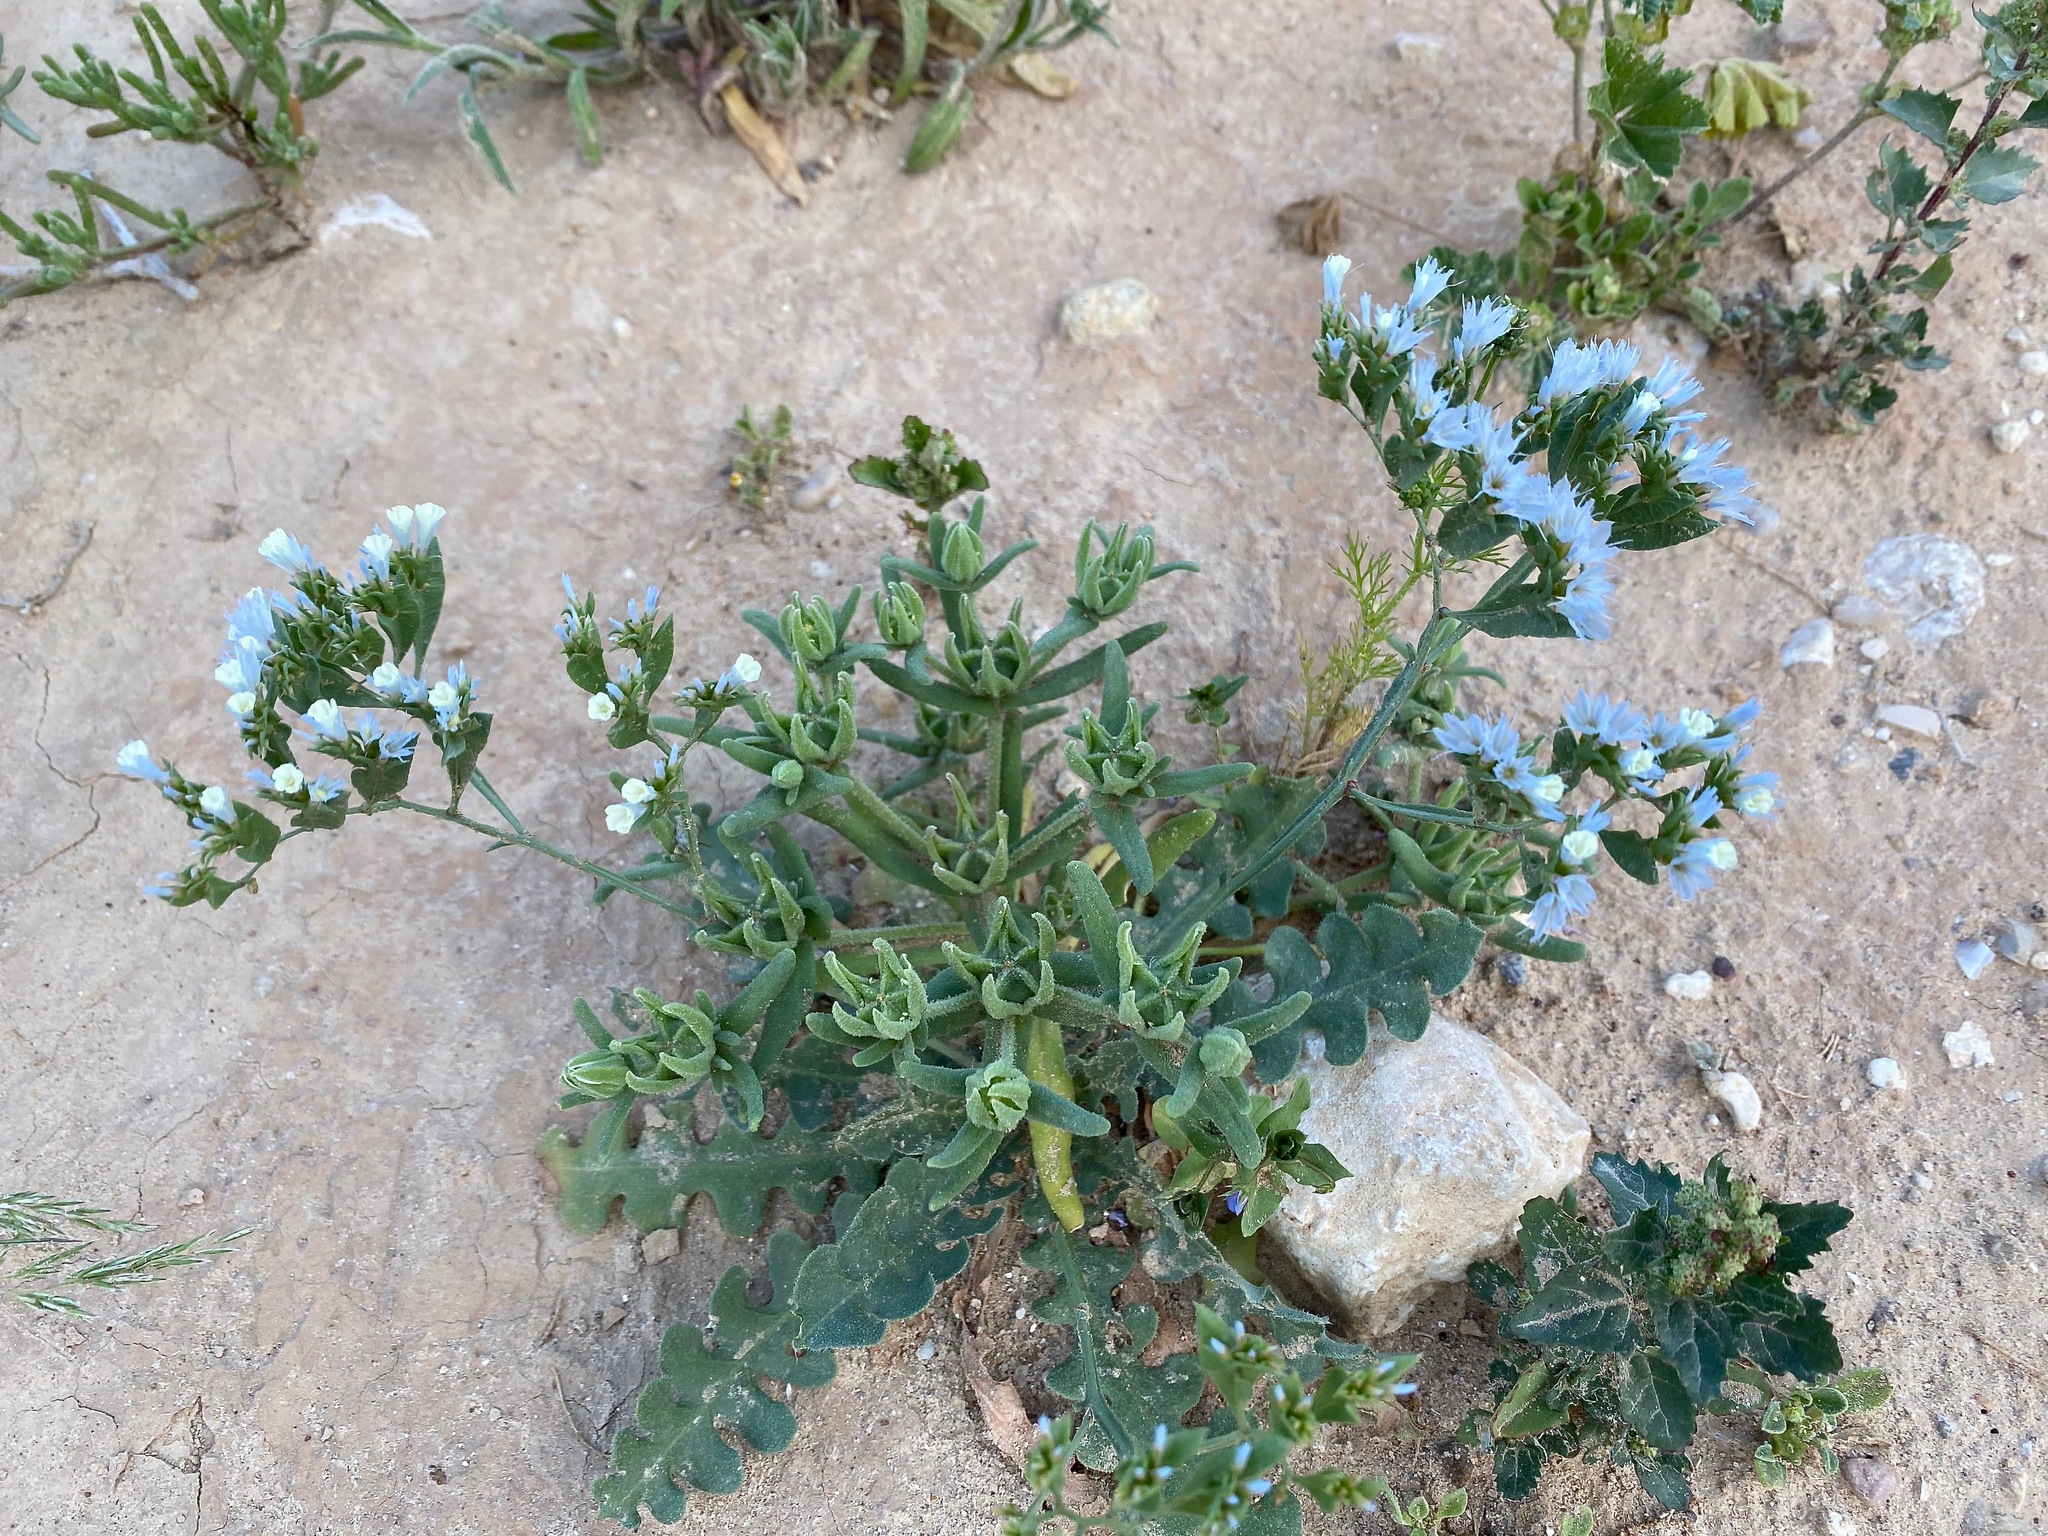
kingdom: Plantae
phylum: Tracheophyta
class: Magnoliopsida
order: Caryophyllales
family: Plumbaginaceae
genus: Limonium
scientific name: Limonium lobatum
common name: Winged sea-lavender
